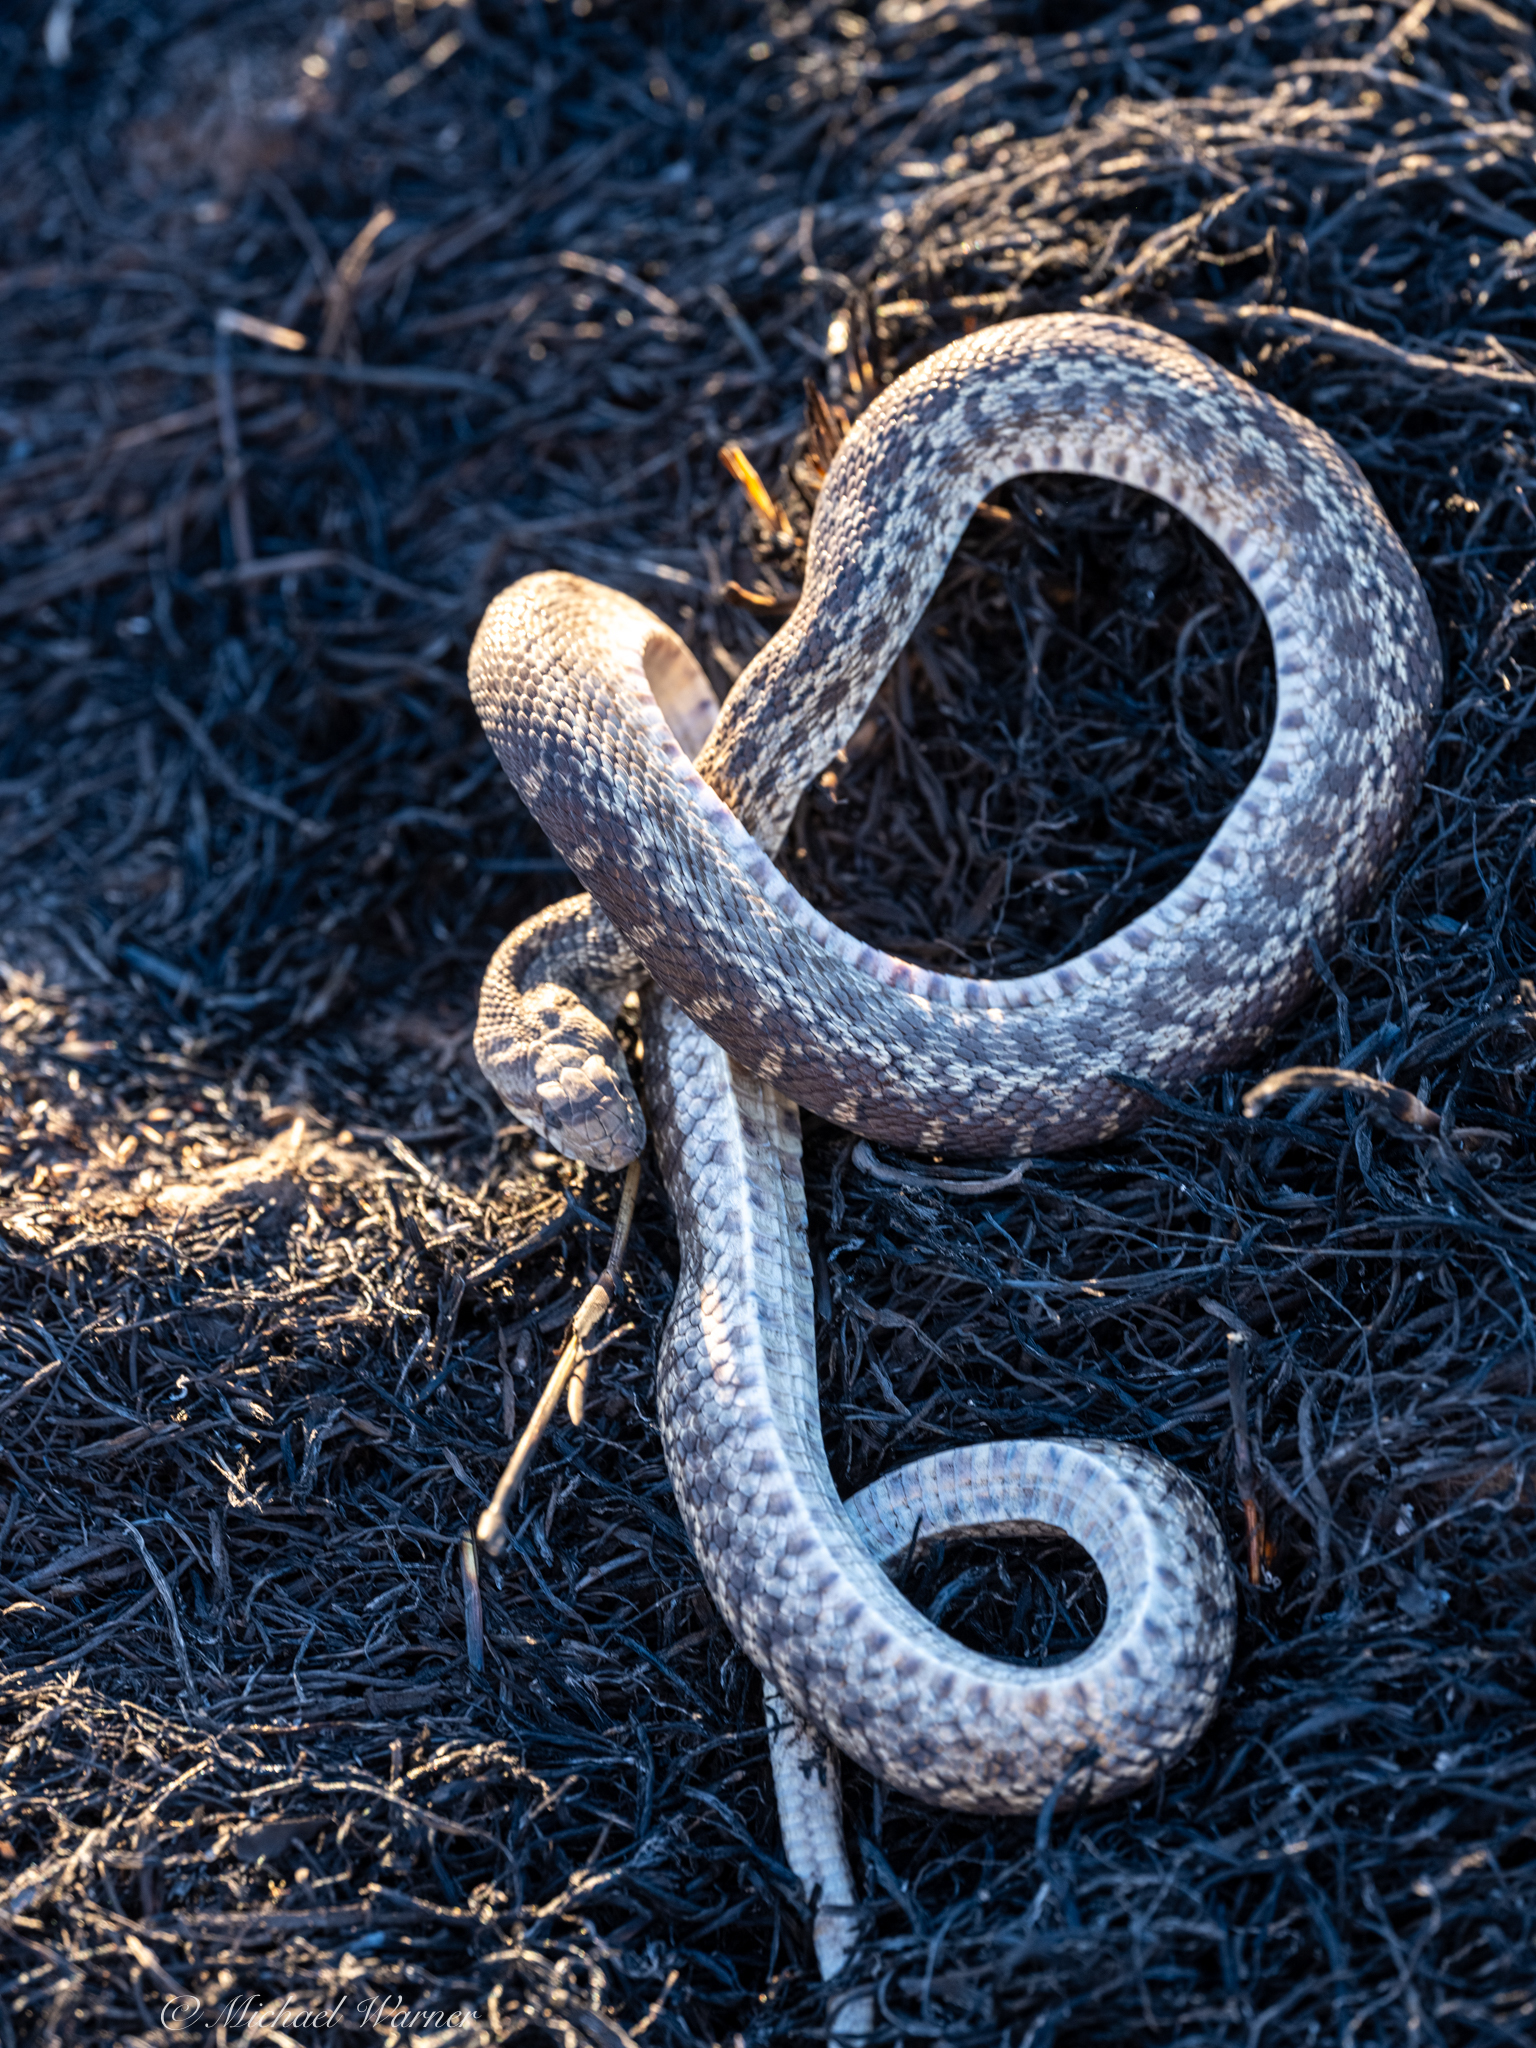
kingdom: Animalia
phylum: Chordata
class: Squamata
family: Colubridae
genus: Pituophis
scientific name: Pituophis catenifer
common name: Gopher snake
